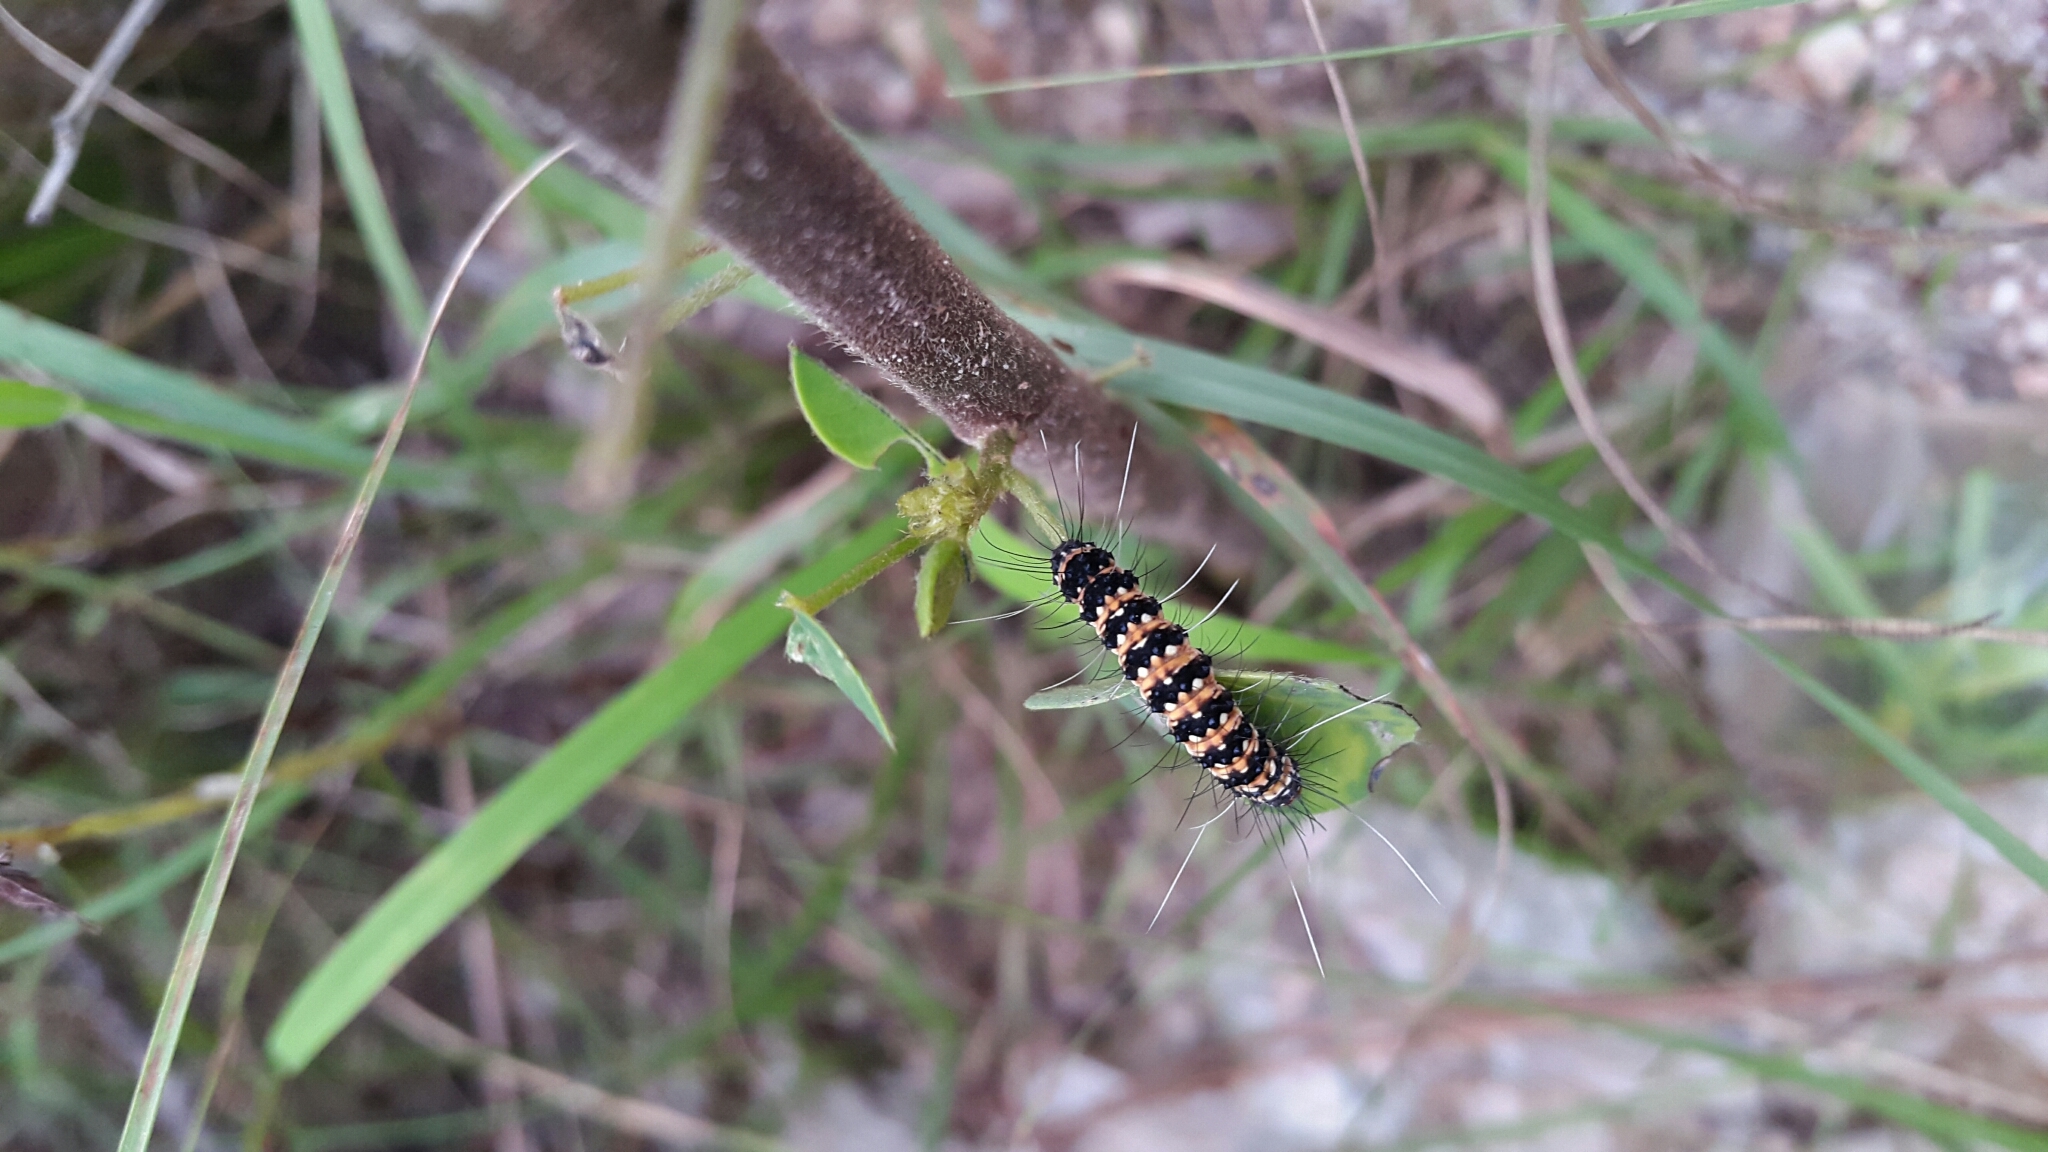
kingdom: Animalia
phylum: Arthropoda
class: Insecta
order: Lepidoptera
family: Erebidae
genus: Utetheisa
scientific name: Utetheisa ornatrix
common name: Beautiful utetheisa
